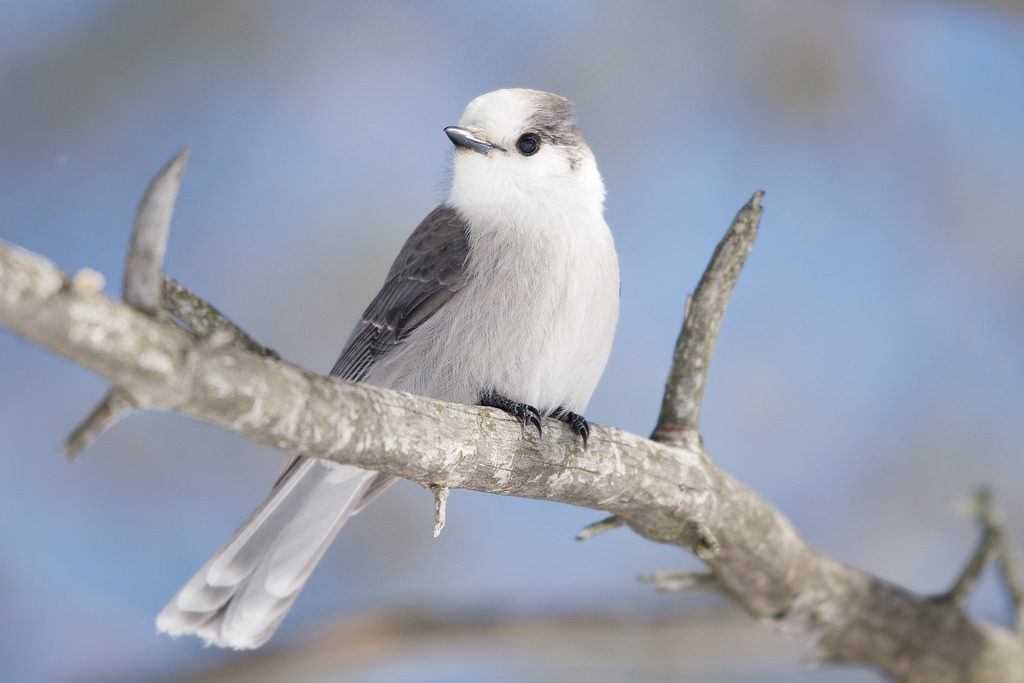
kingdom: Animalia
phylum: Chordata
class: Aves
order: Passeriformes
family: Corvidae
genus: Perisoreus
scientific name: Perisoreus canadensis
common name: Gray jay
